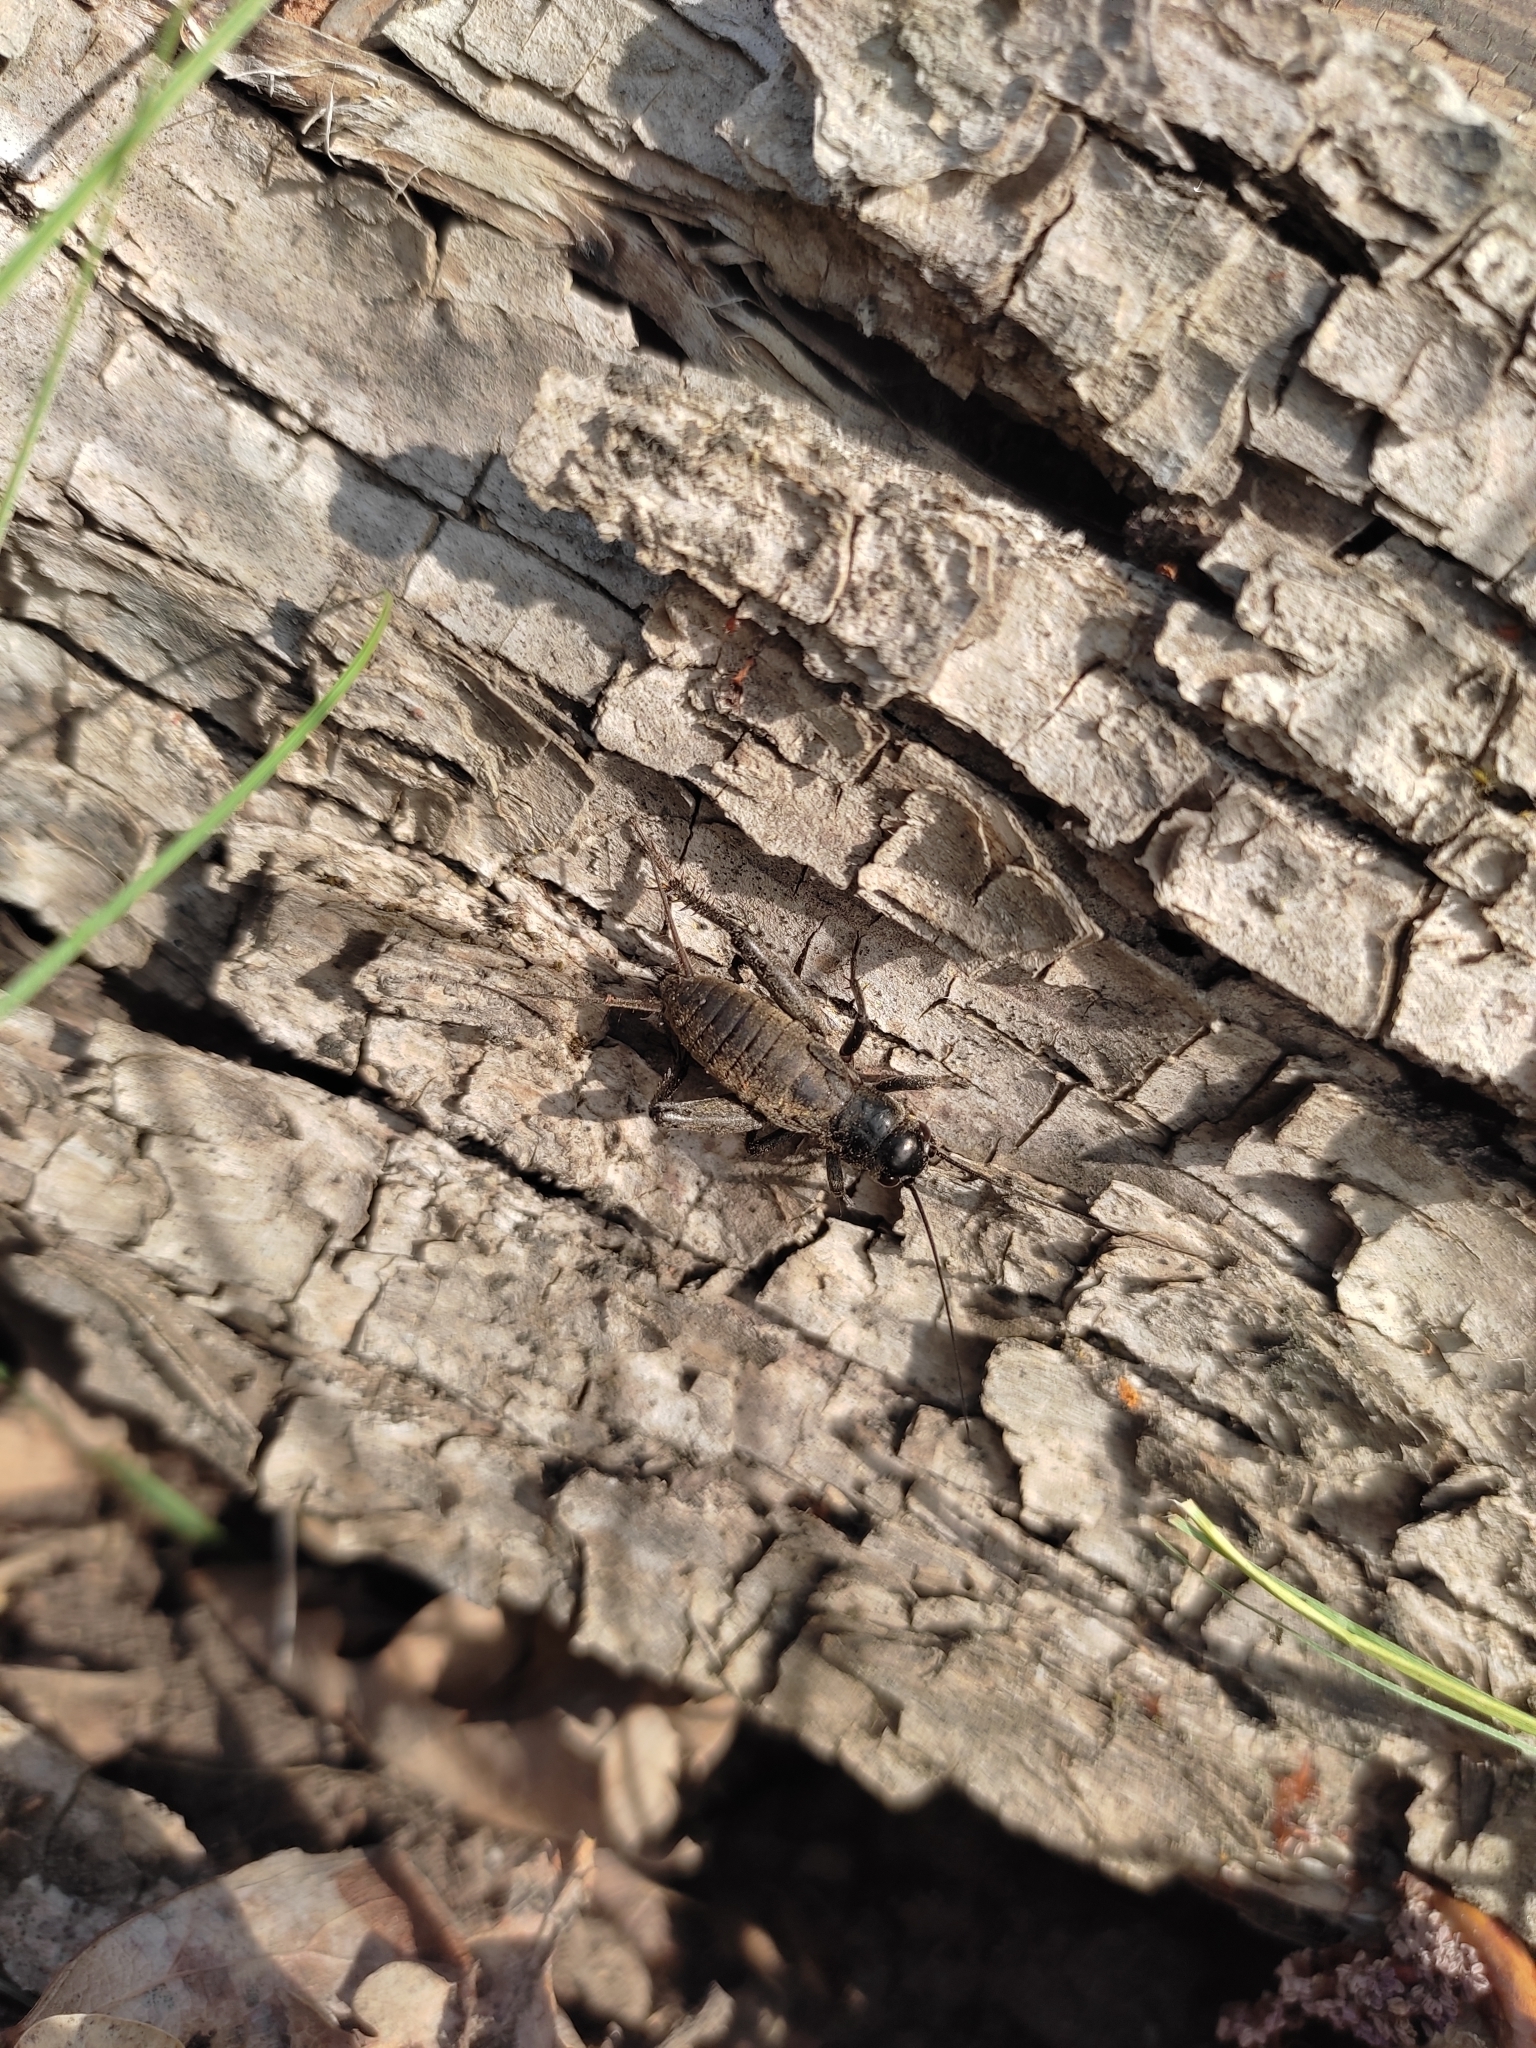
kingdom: Animalia
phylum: Arthropoda
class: Insecta
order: Orthoptera
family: Gryllidae
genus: Melanogryllus
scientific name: Melanogryllus desertus
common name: Desert cricket
